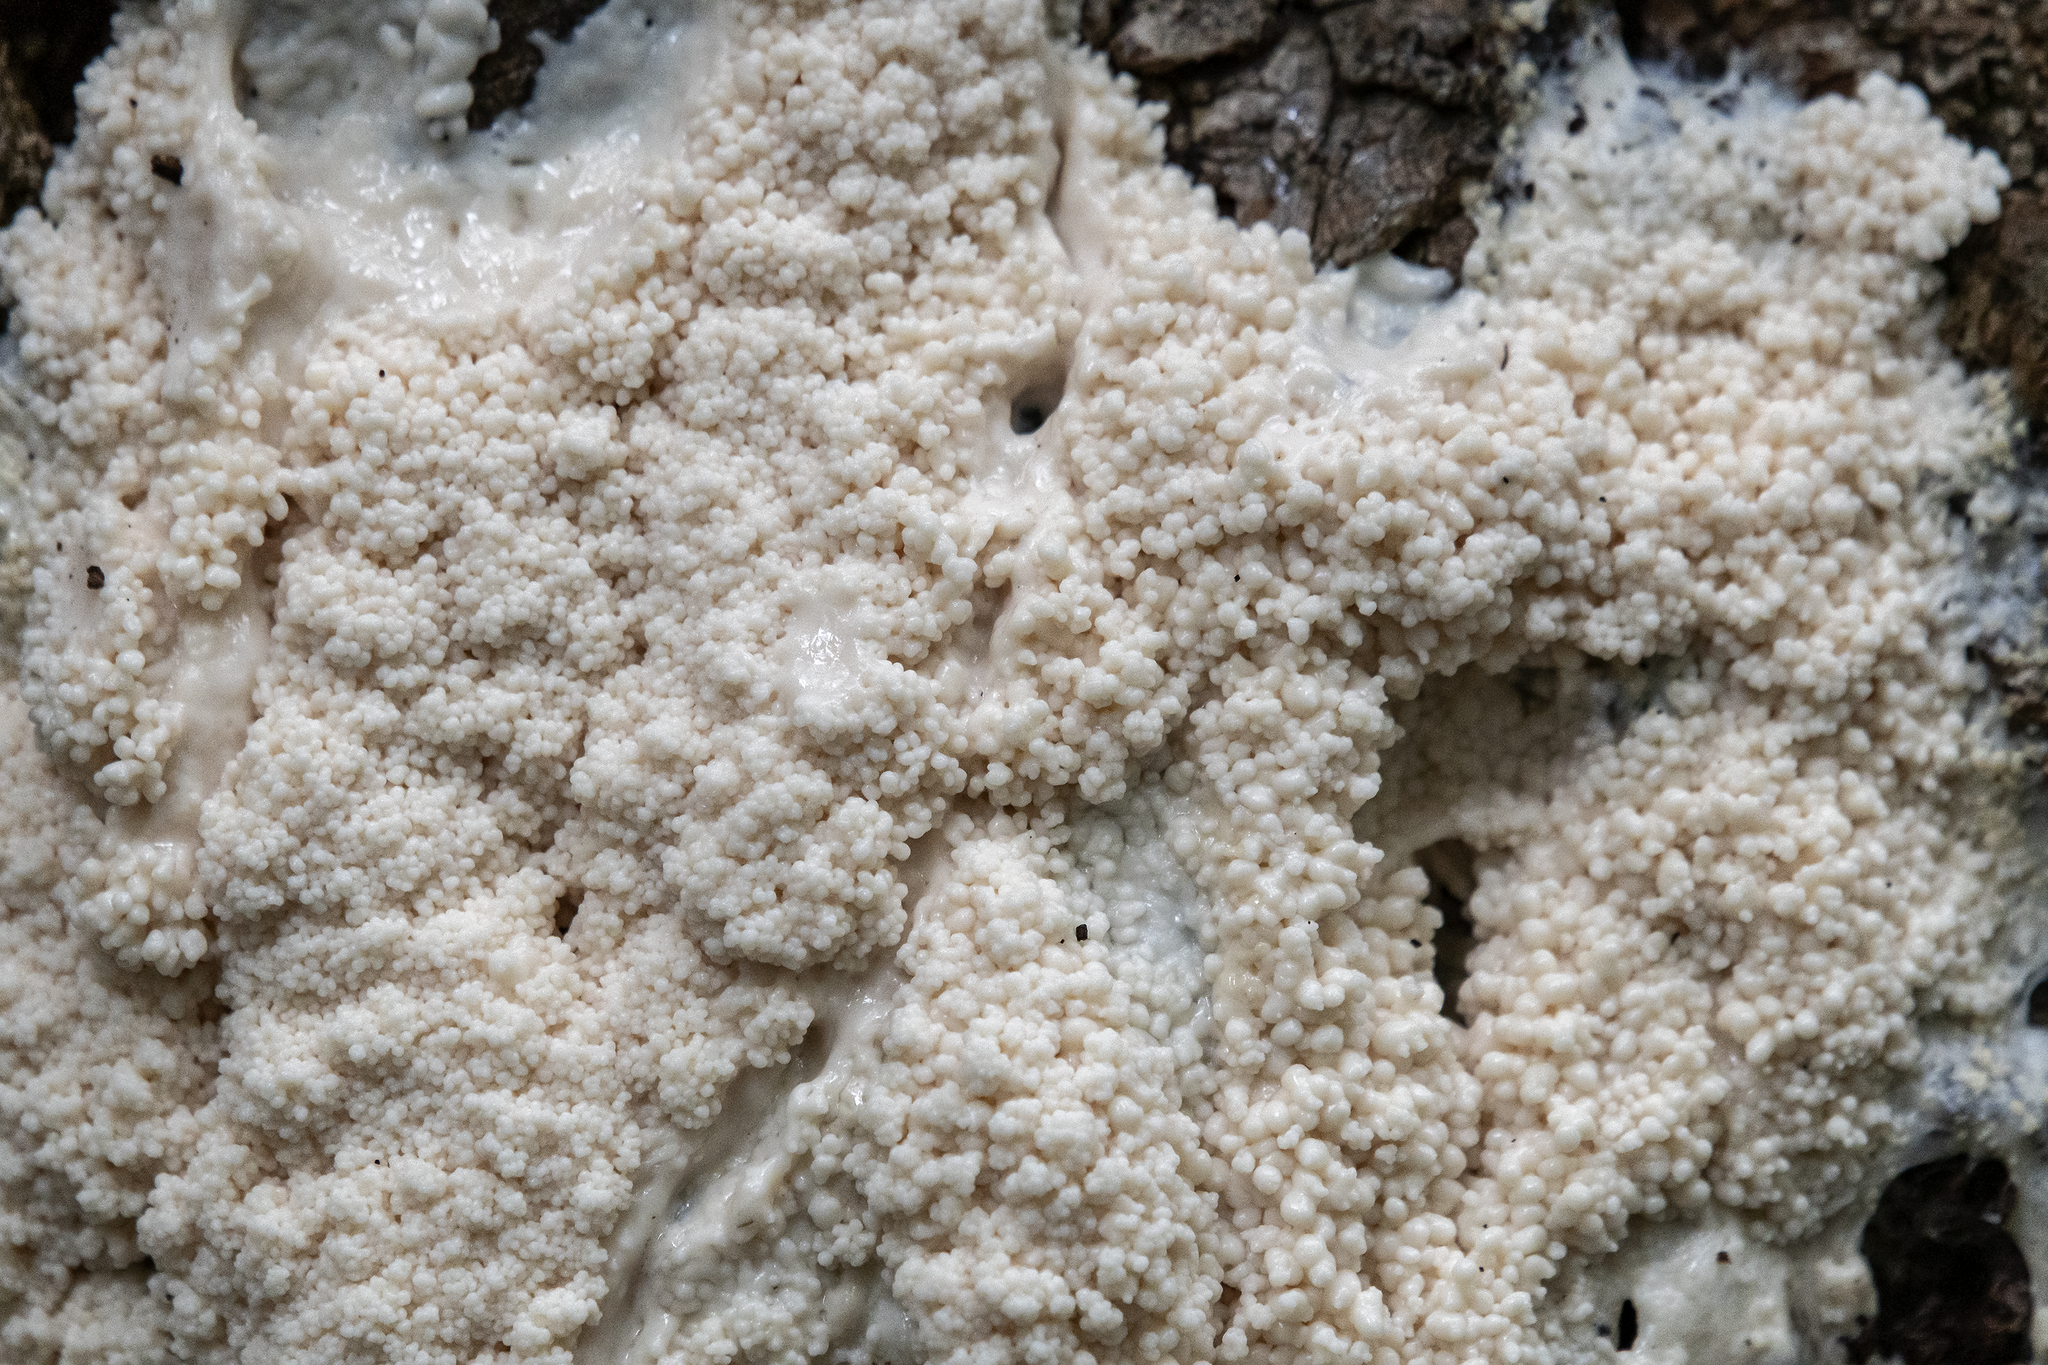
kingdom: Protozoa
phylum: Mycetozoa
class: Myxomycetes
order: Stemonitidales
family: Stemonitidaceae
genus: Brefeldia
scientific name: Brefeldia maxima
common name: Tapioca slime mold
